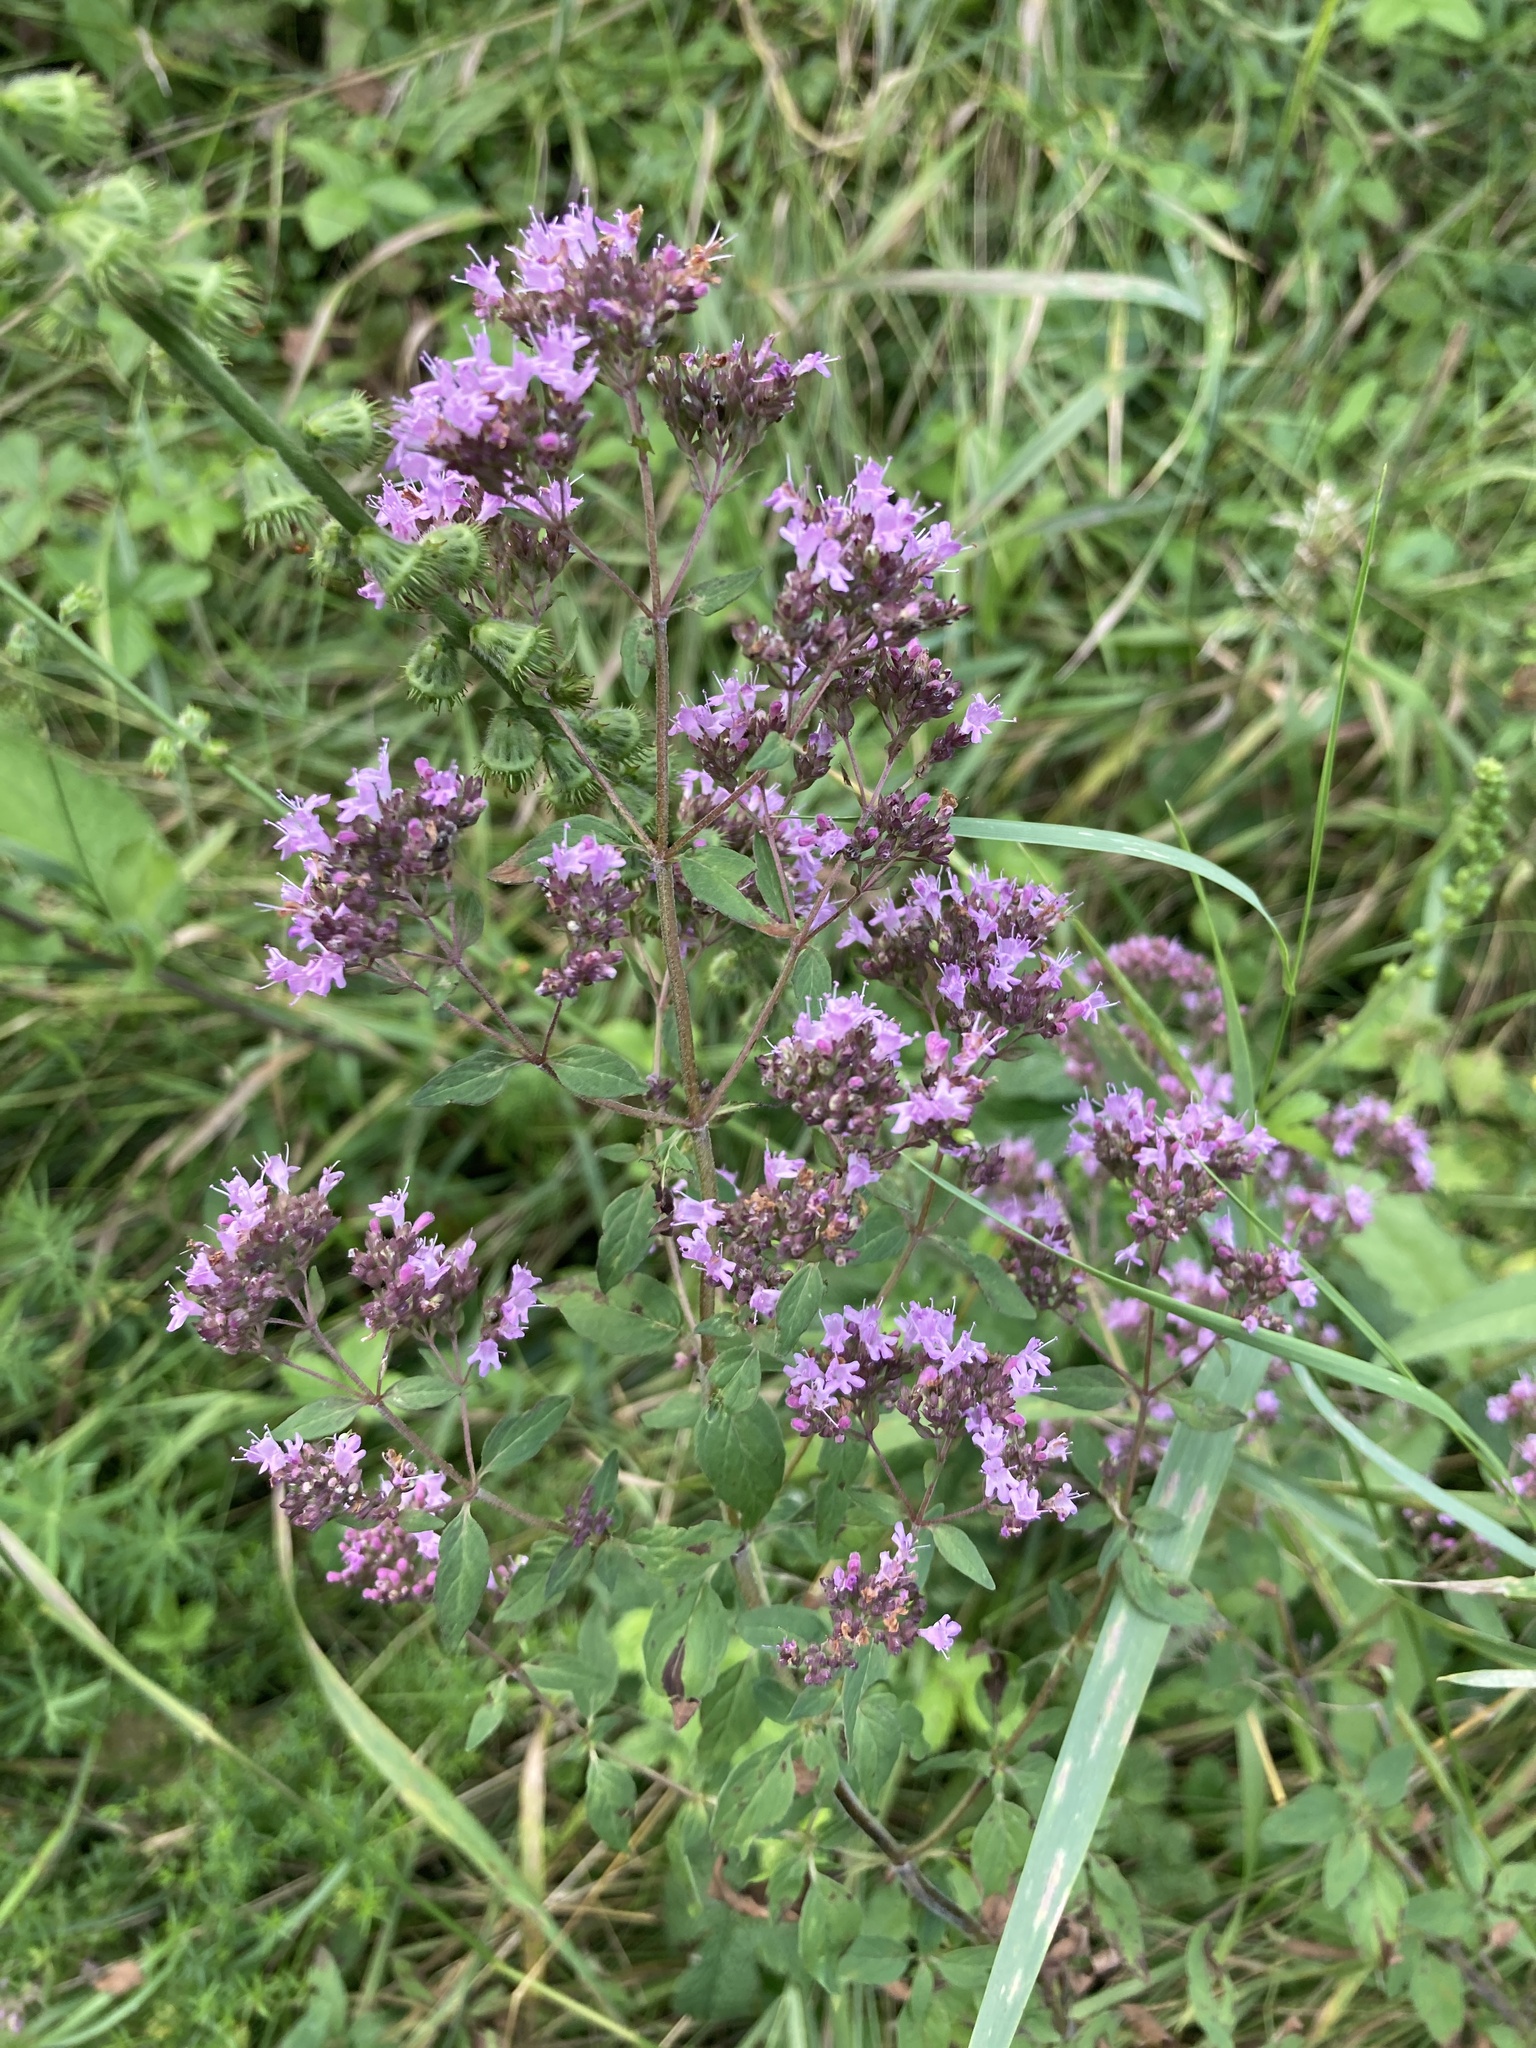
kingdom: Plantae
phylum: Tracheophyta
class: Magnoliopsida
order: Lamiales
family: Lamiaceae
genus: Origanum
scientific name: Origanum vulgare
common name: Wild marjoram
